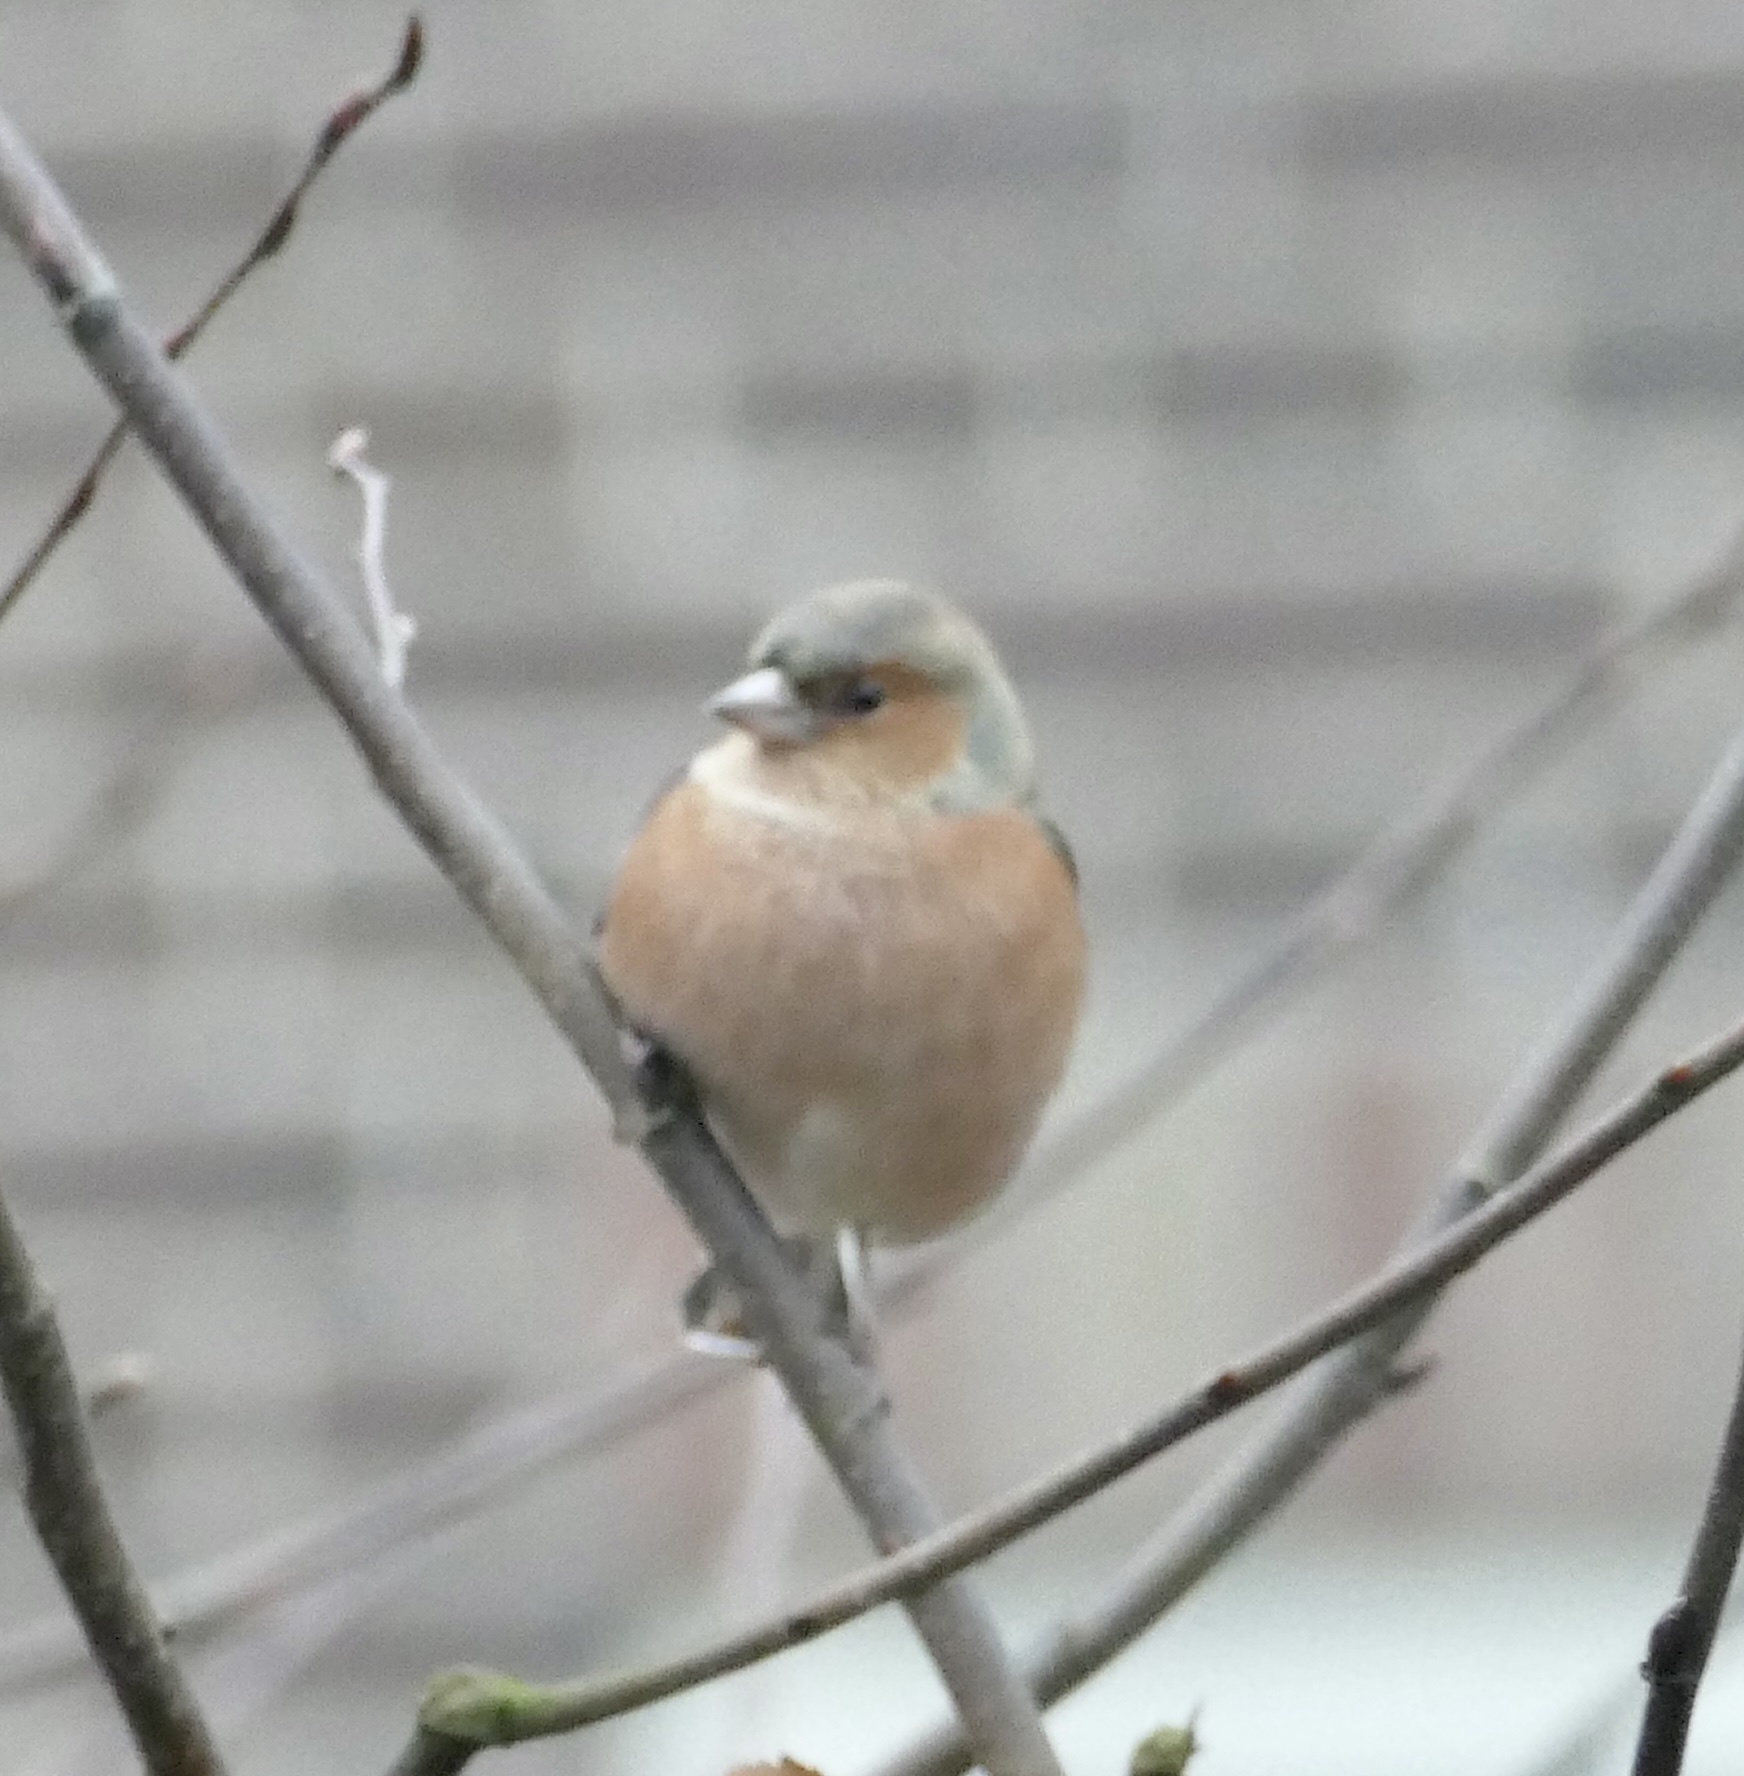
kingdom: Animalia
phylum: Chordata
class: Aves
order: Passeriformes
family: Fringillidae
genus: Fringilla
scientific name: Fringilla coelebs
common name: Common chaffinch
